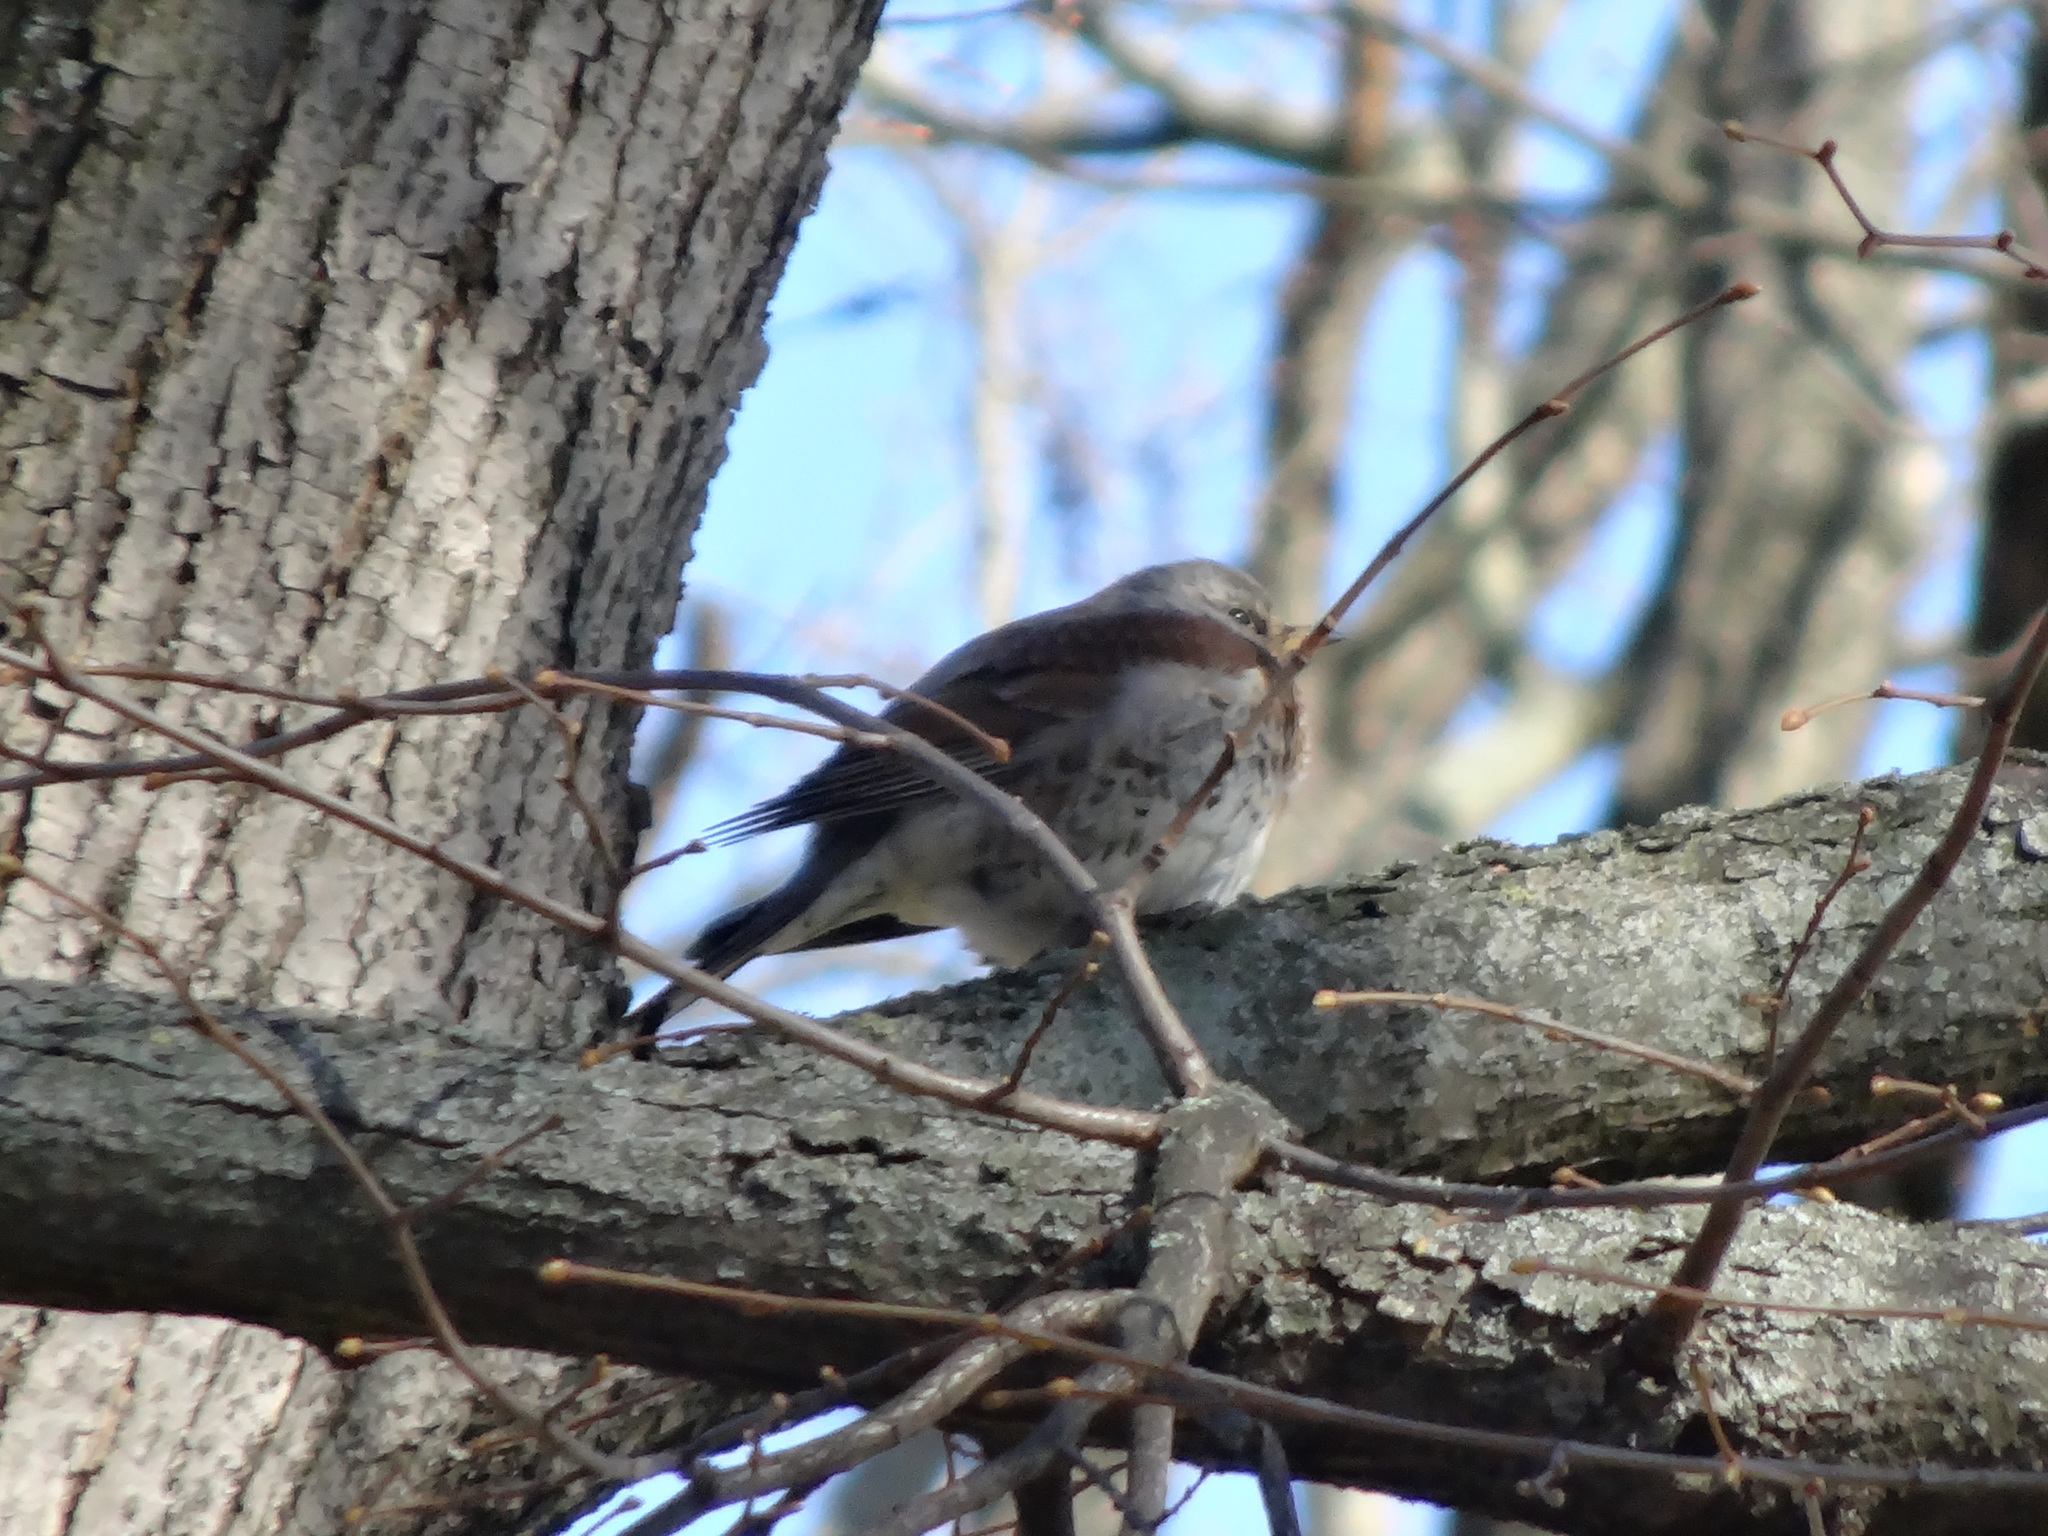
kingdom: Animalia
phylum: Chordata
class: Aves
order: Passeriformes
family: Turdidae
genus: Turdus
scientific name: Turdus pilaris
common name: Fieldfare
